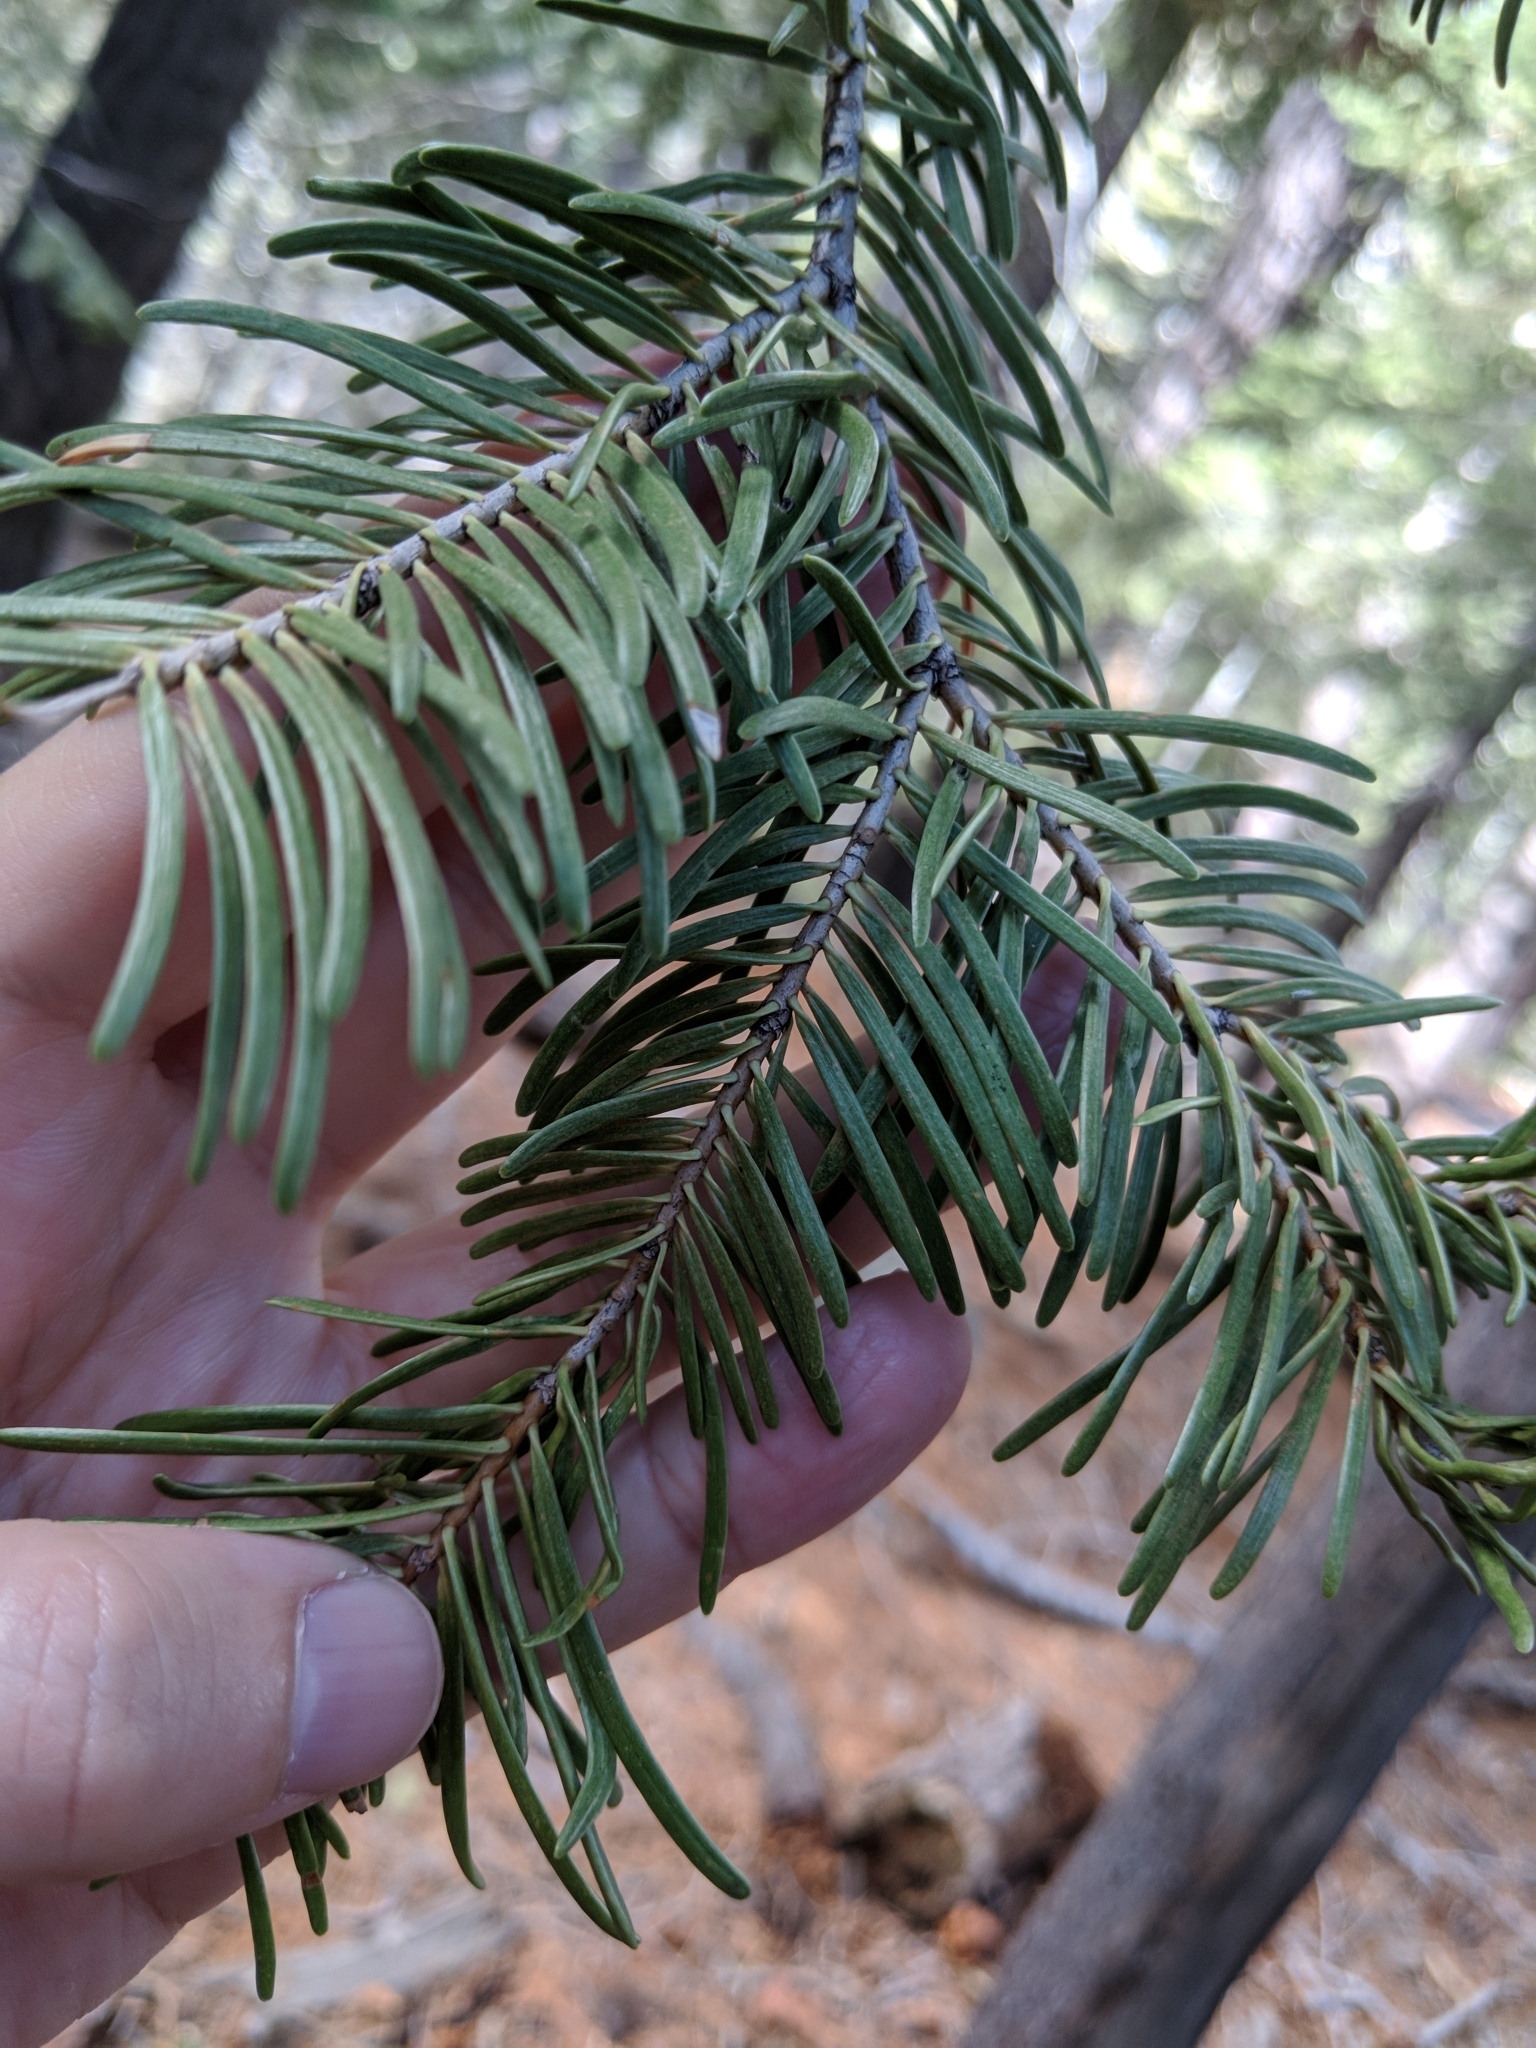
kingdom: Plantae
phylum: Tracheophyta
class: Pinopsida
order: Pinales
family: Pinaceae
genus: Abies
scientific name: Abies concolor
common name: Colorado fir
